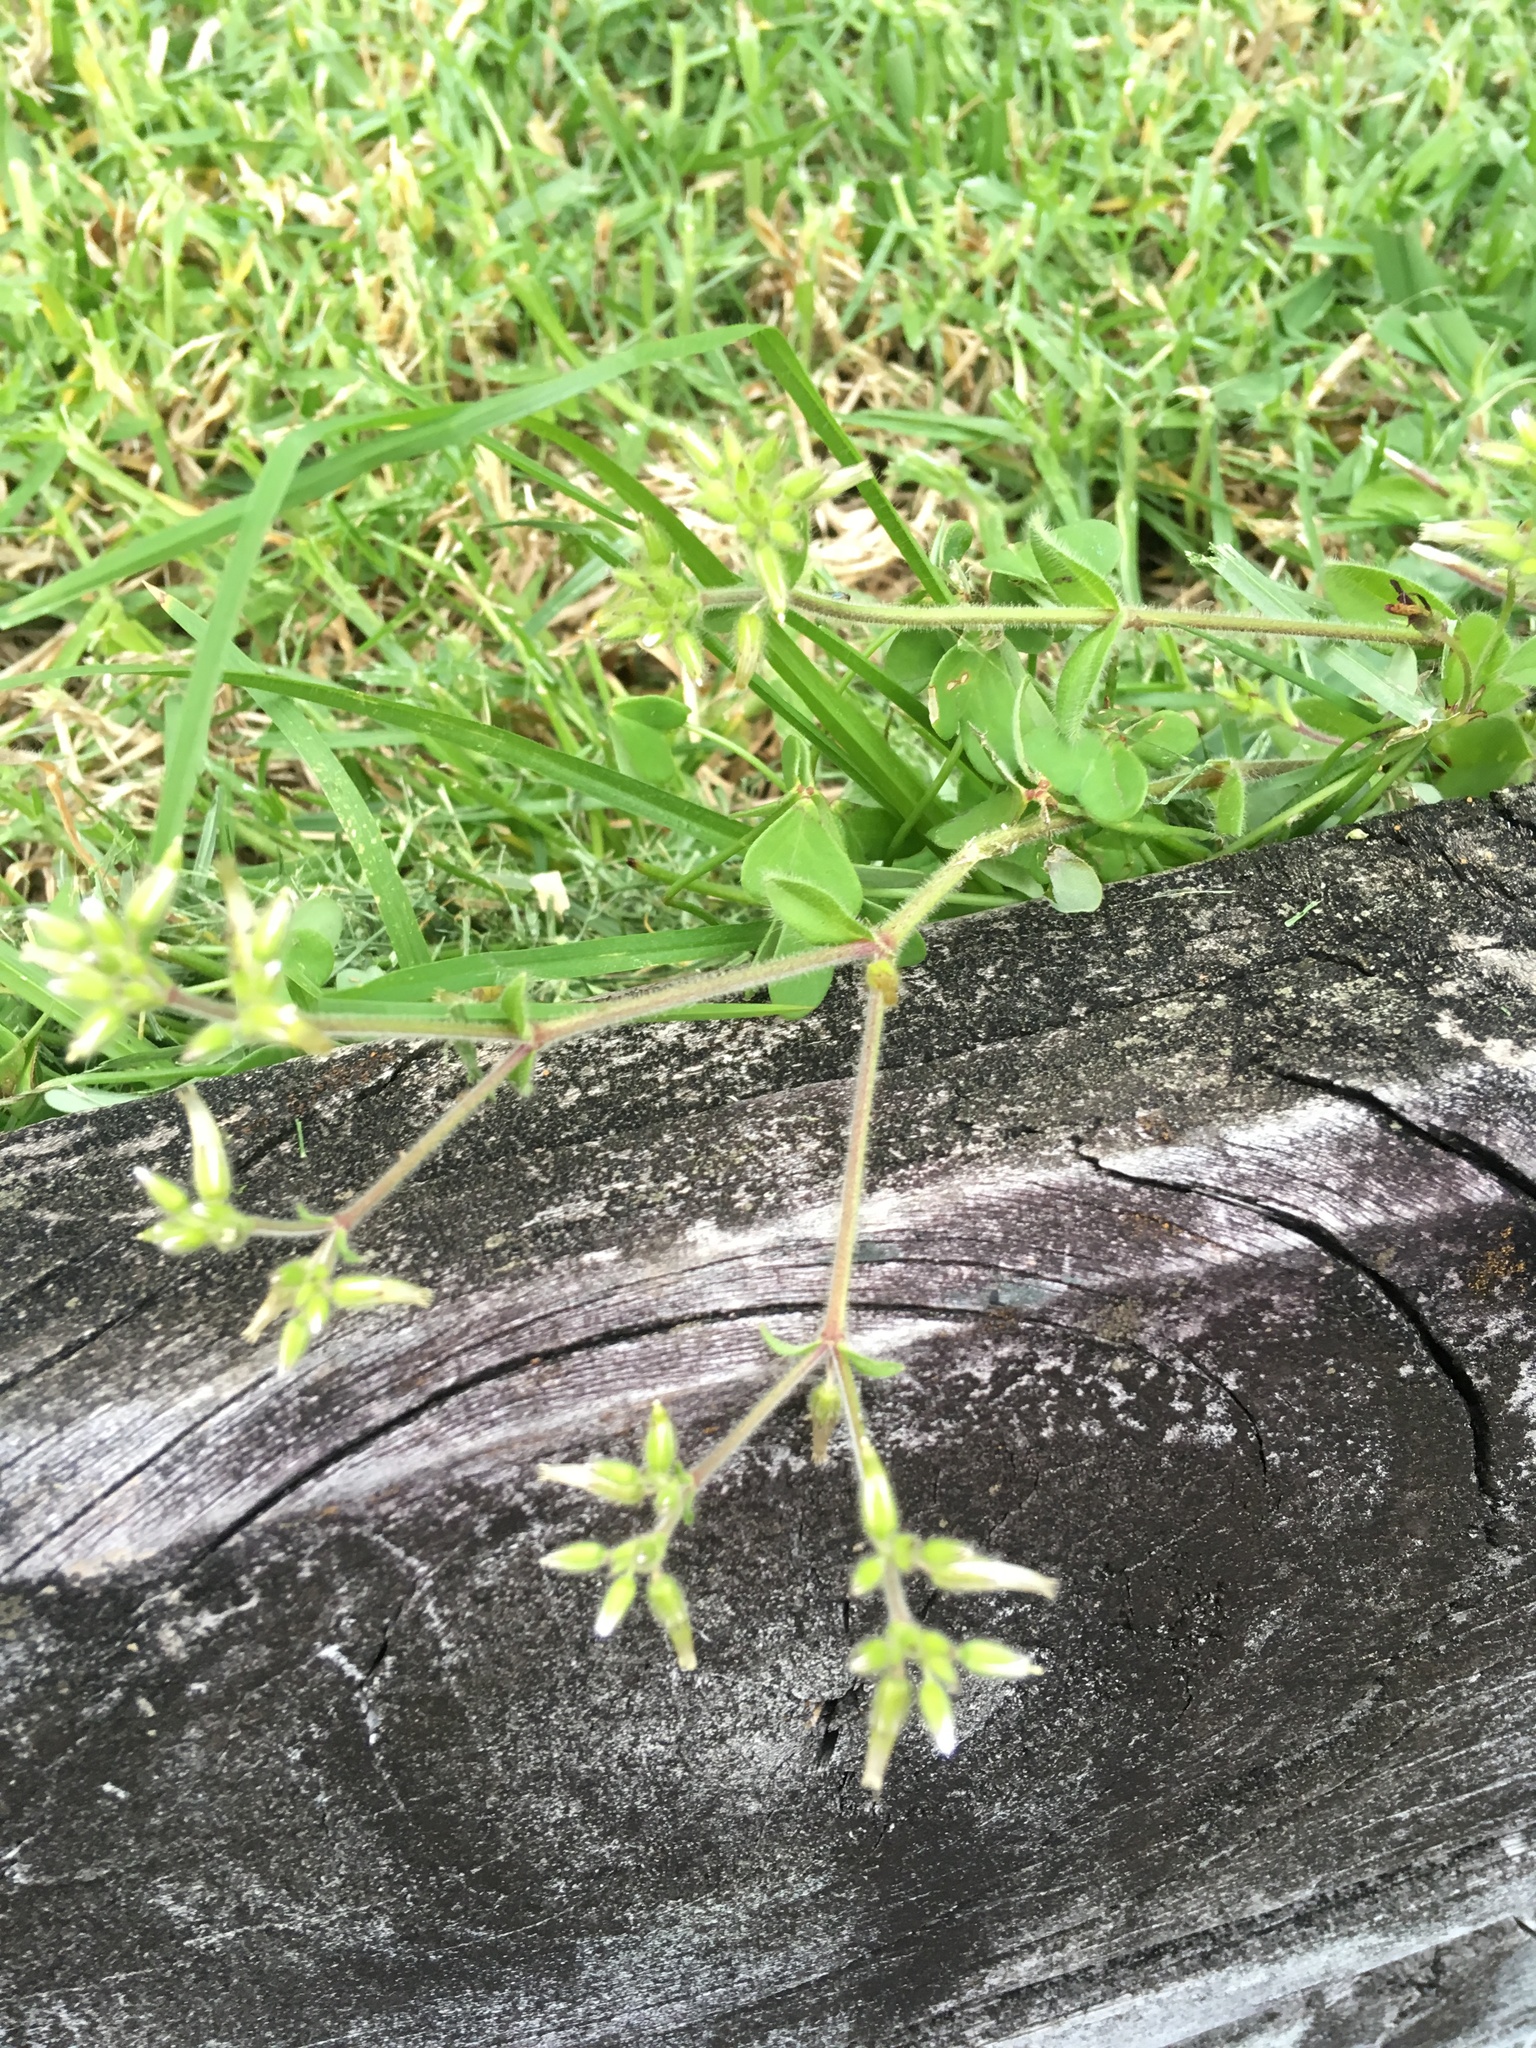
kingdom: Plantae
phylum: Tracheophyta
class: Magnoliopsida
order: Caryophyllales
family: Caryophyllaceae
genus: Cerastium
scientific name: Cerastium fontanum
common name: Common mouse-ear
